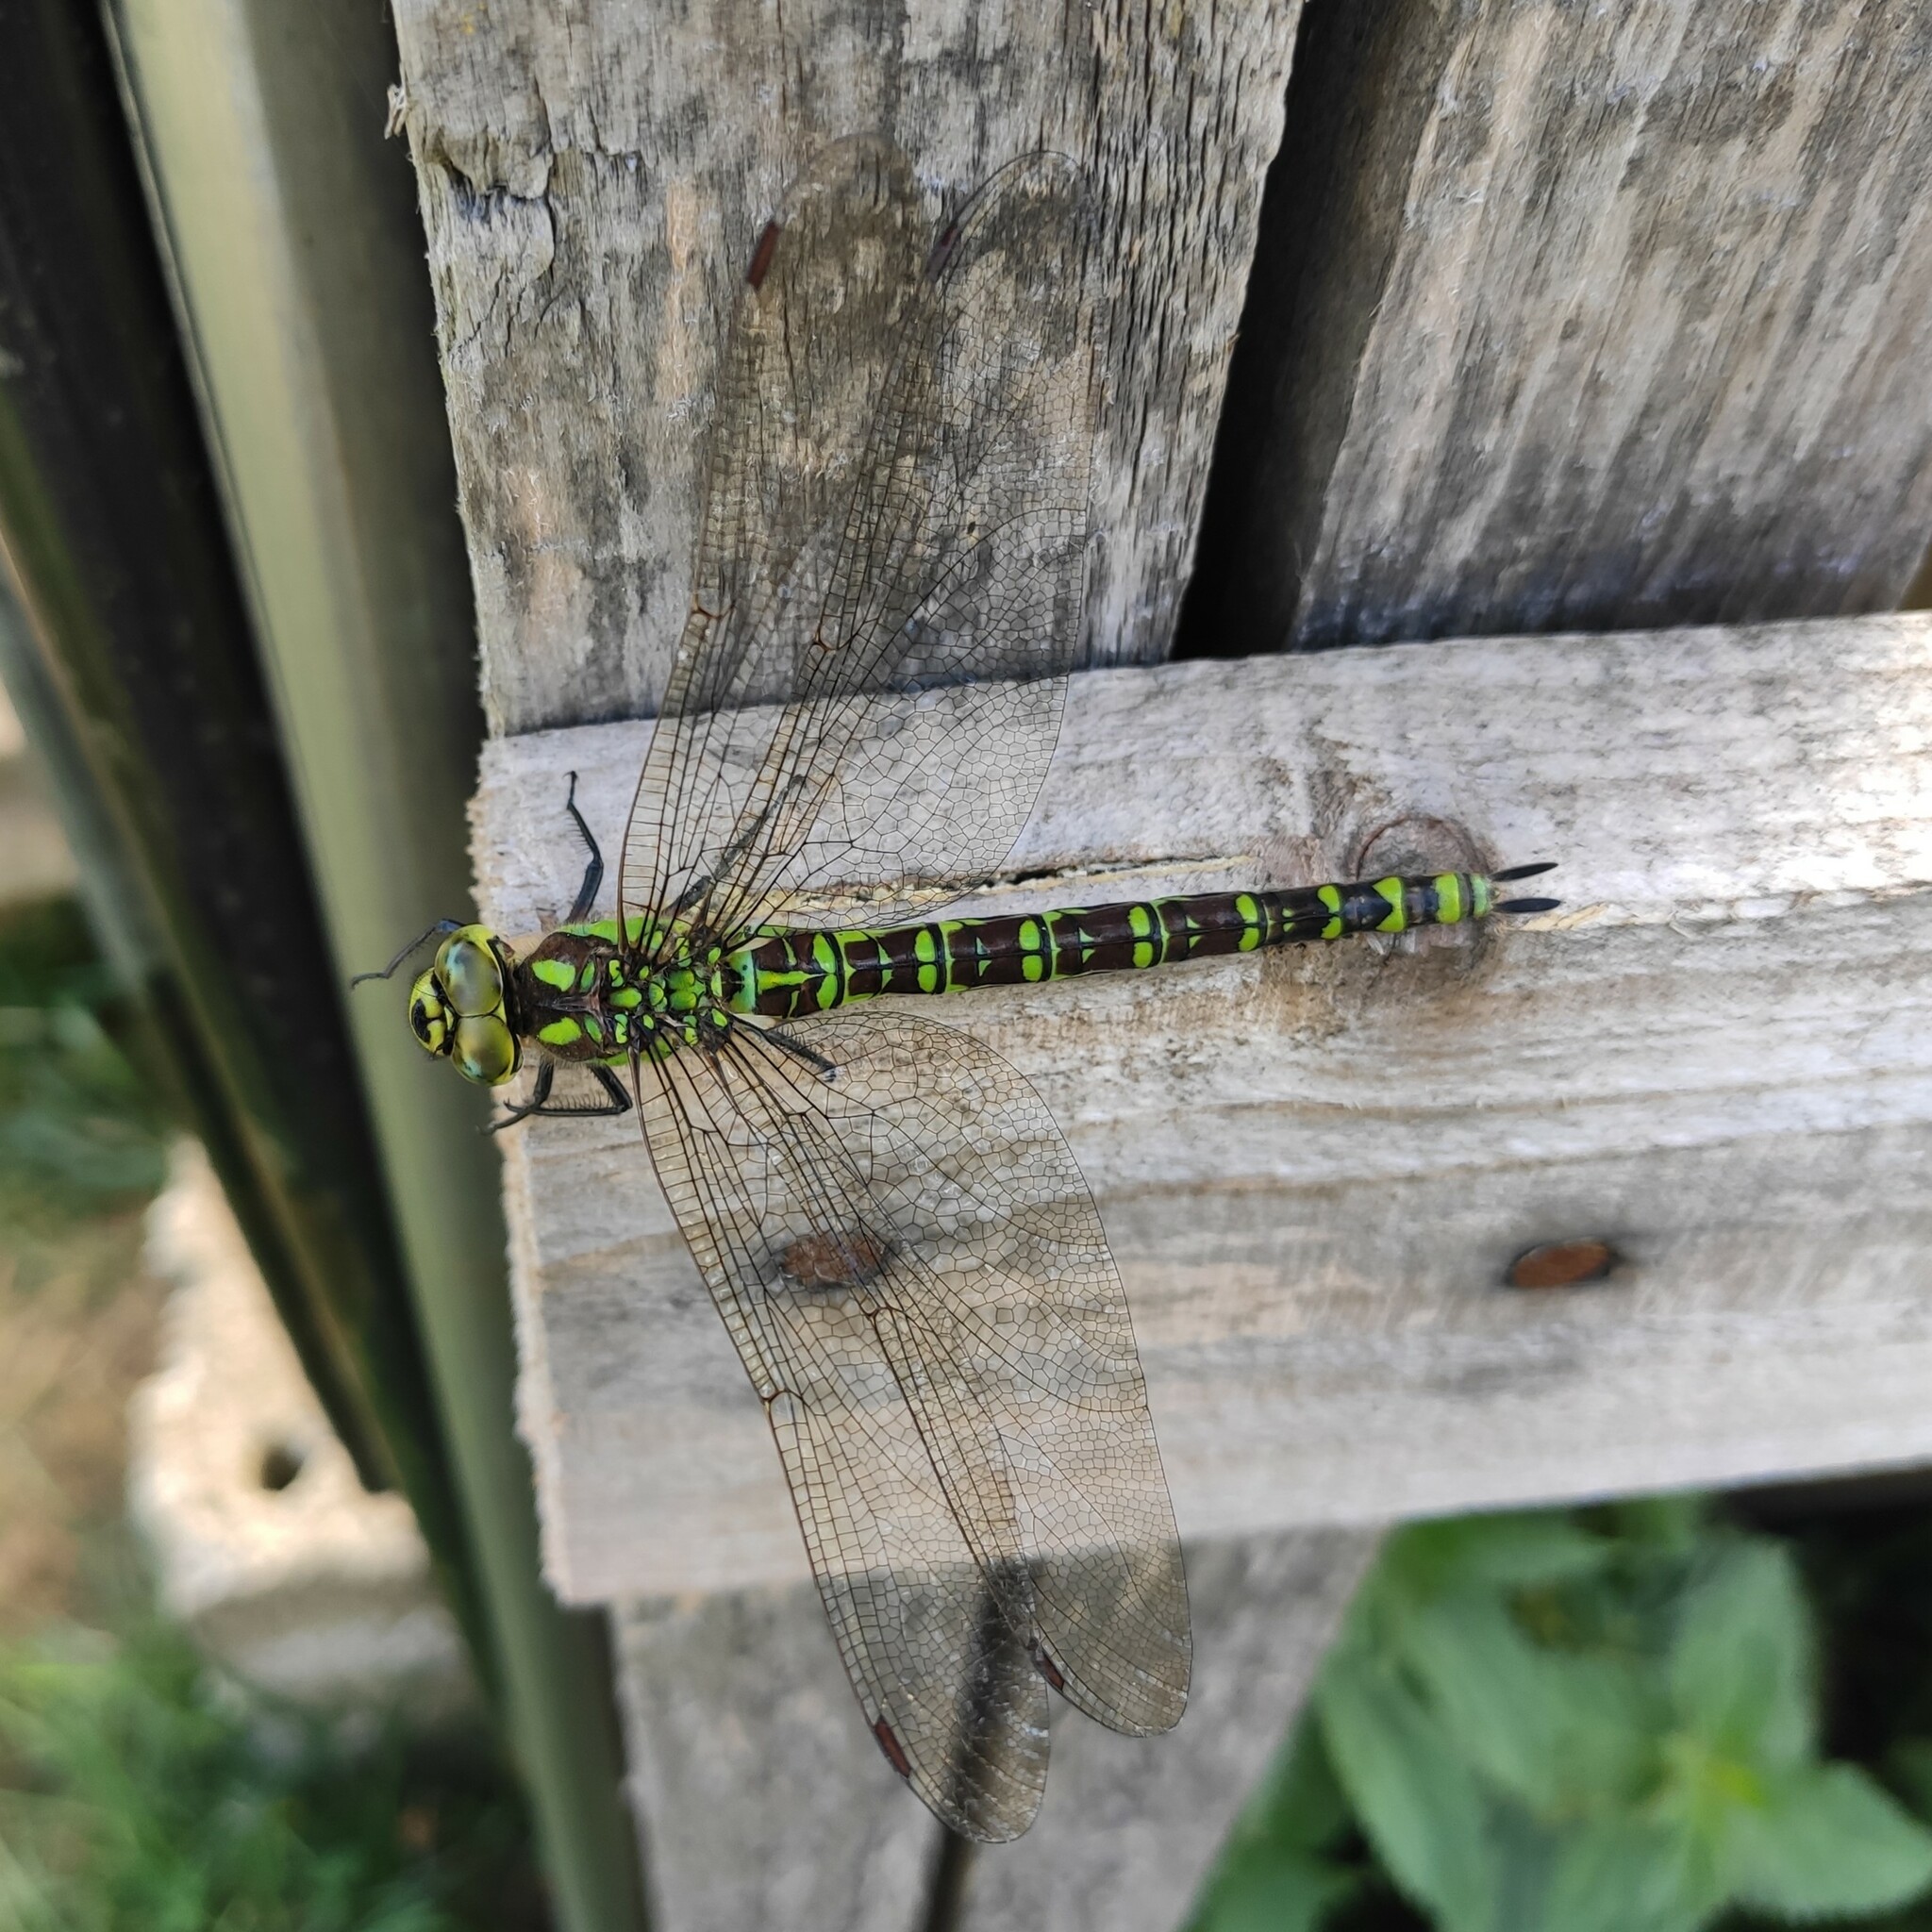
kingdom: Animalia
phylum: Arthropoda
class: Insecta
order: Odonata
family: Aeshnidae
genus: Aeshna
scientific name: Aeshna cyanea
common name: Southern hawker
